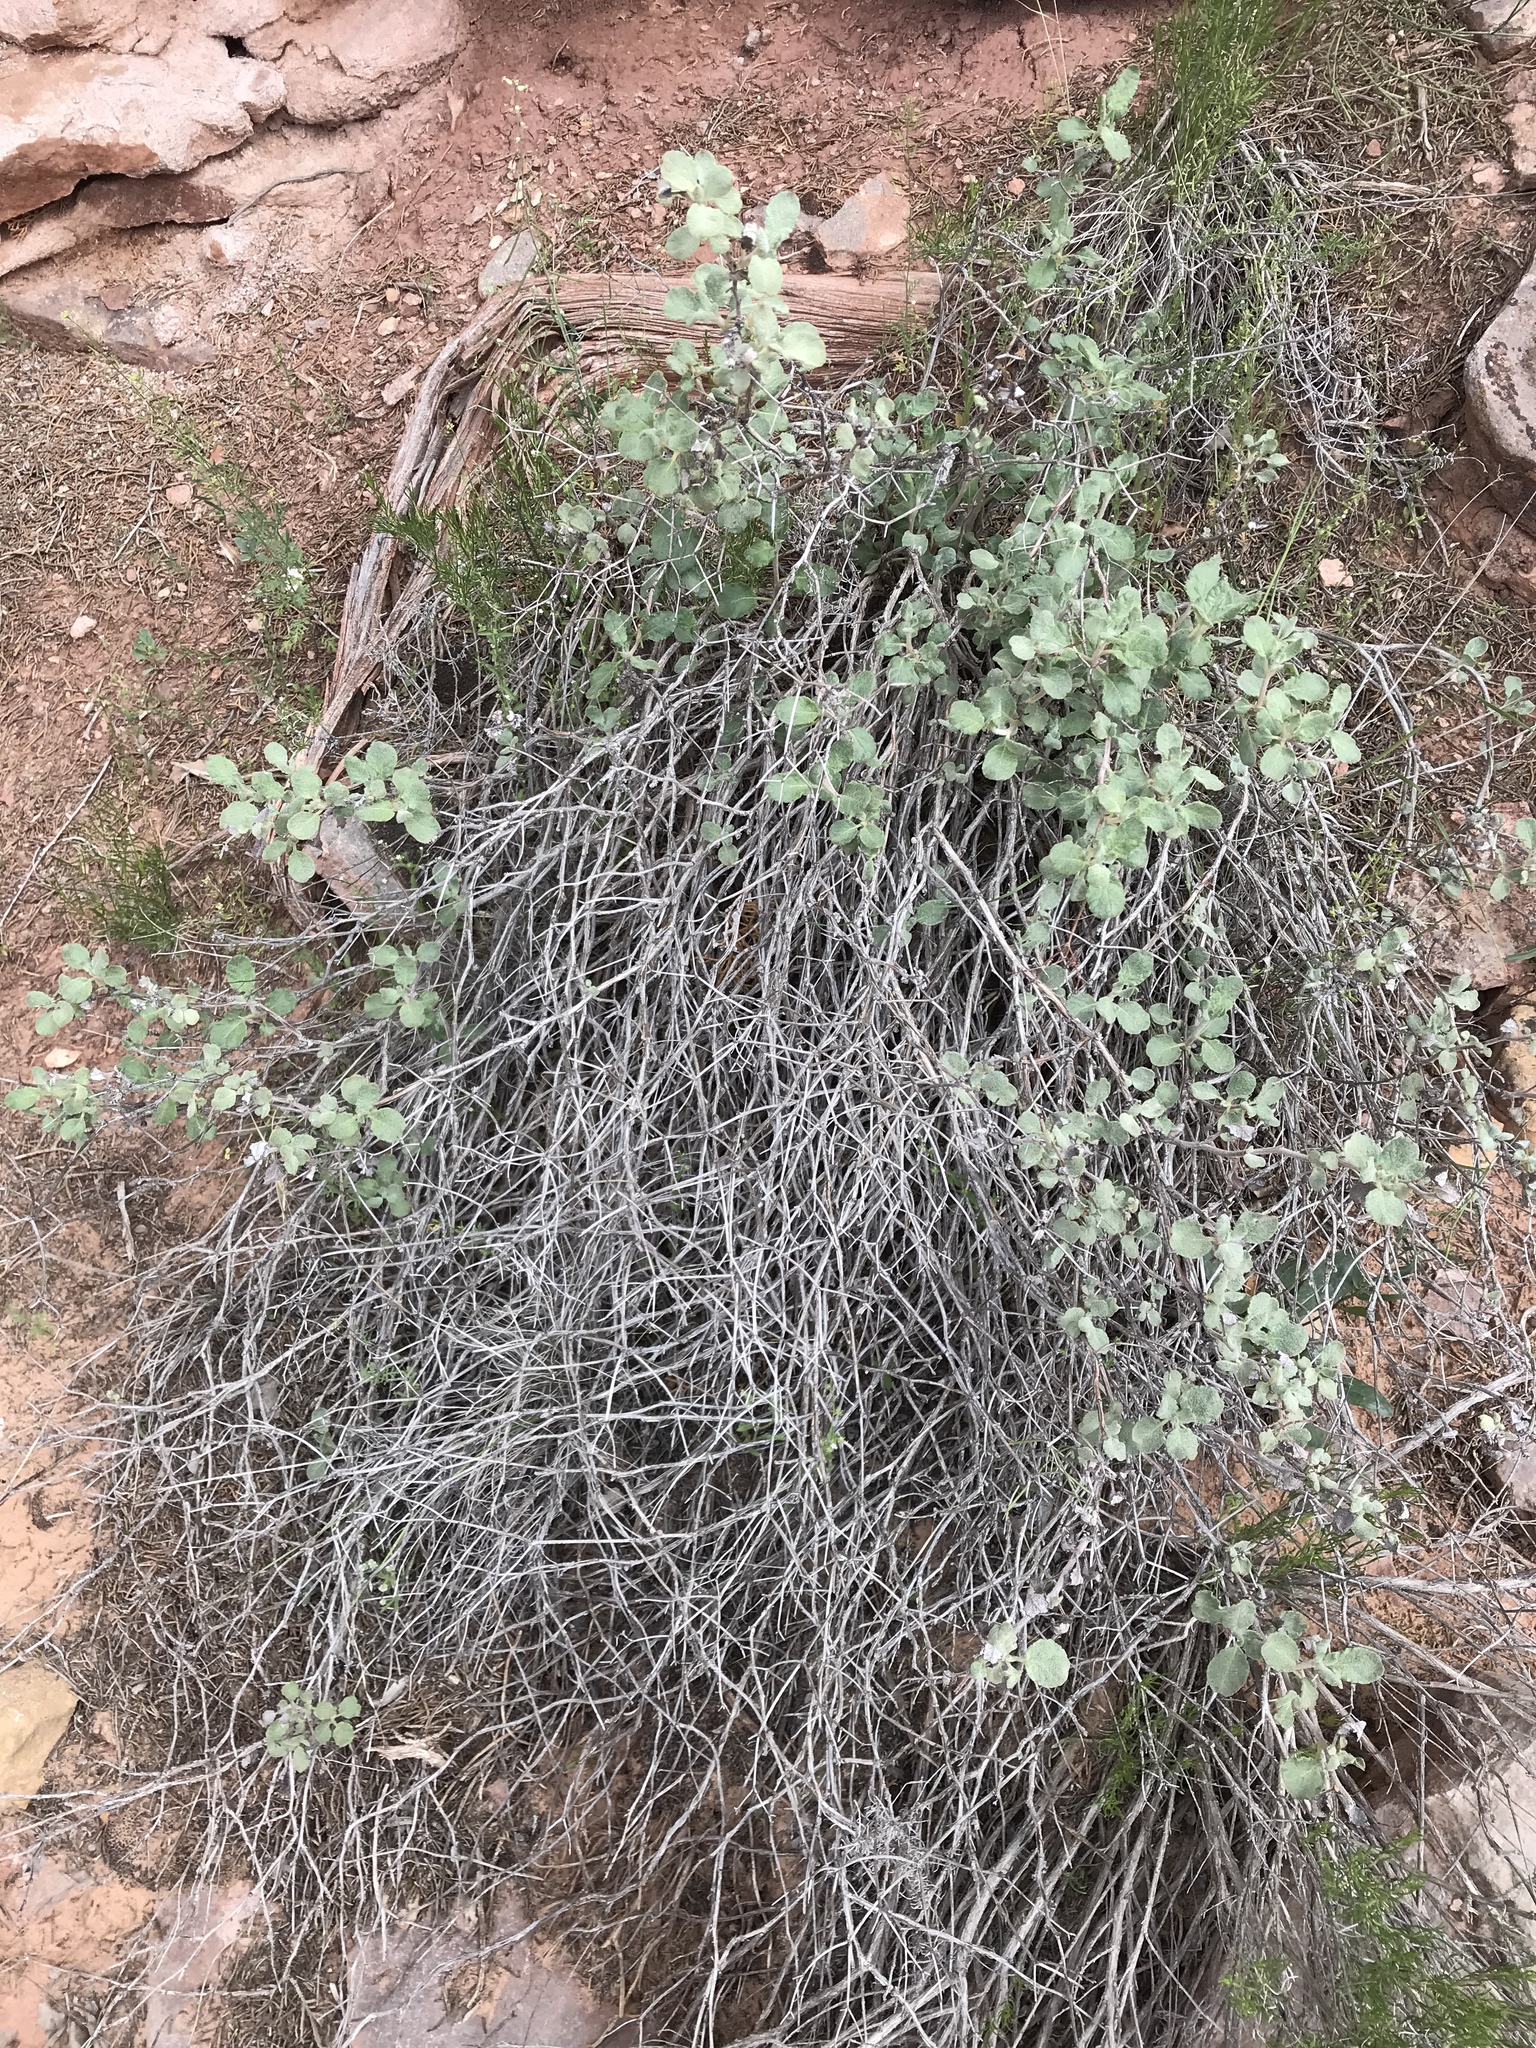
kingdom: Plantae
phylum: Tracheophyta
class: Magnoliopsida
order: Caryophyllales
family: Polygonaceae
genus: Eriogonum
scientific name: Eriogonum corymbosum
